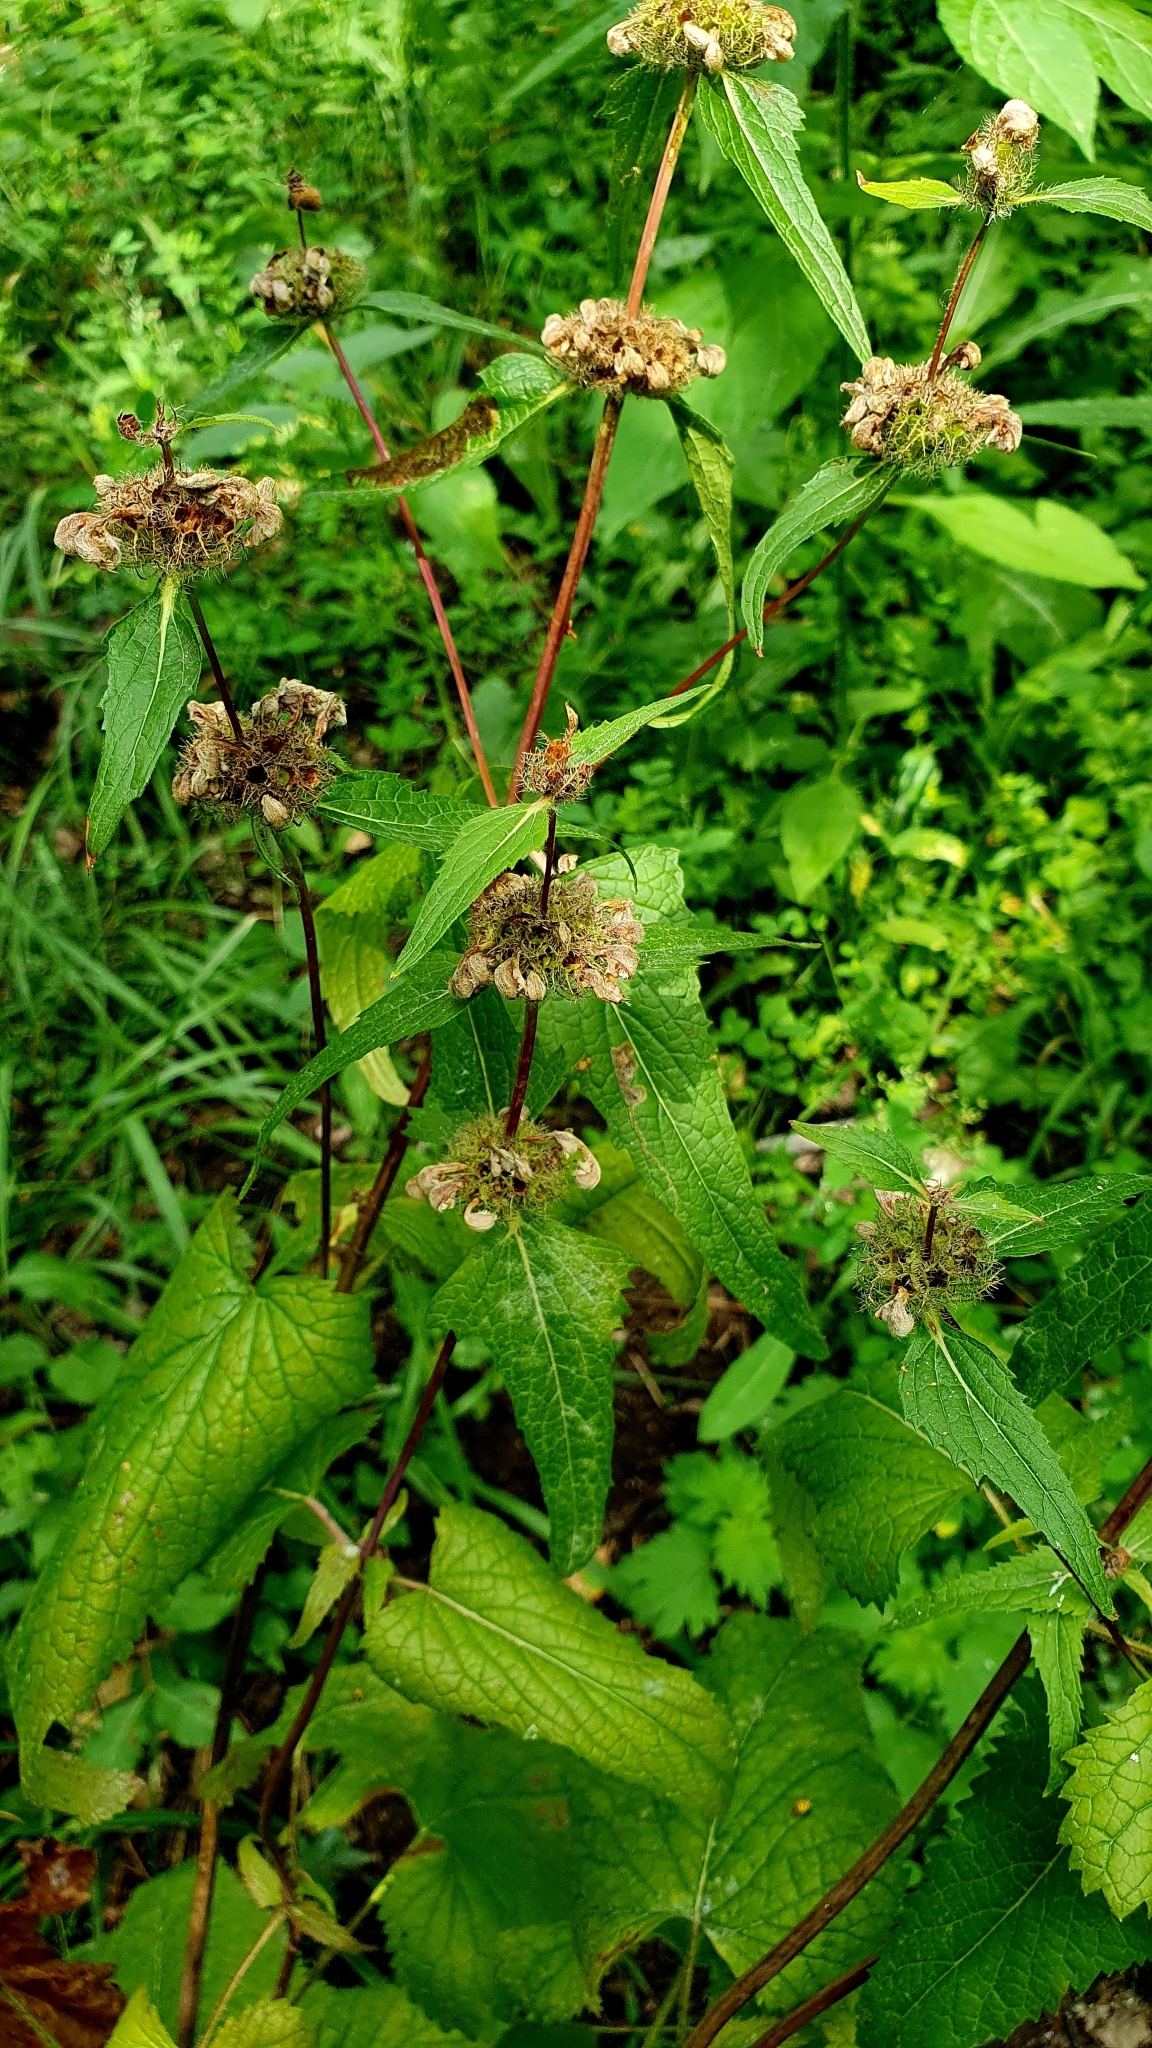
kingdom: Plantae
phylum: Tracheophyta
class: Magnoliopsida
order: Lamiales
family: Lamiaceae
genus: Phlomoides
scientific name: Phlomoides tuberosa
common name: Tuberous jerusalem sage
